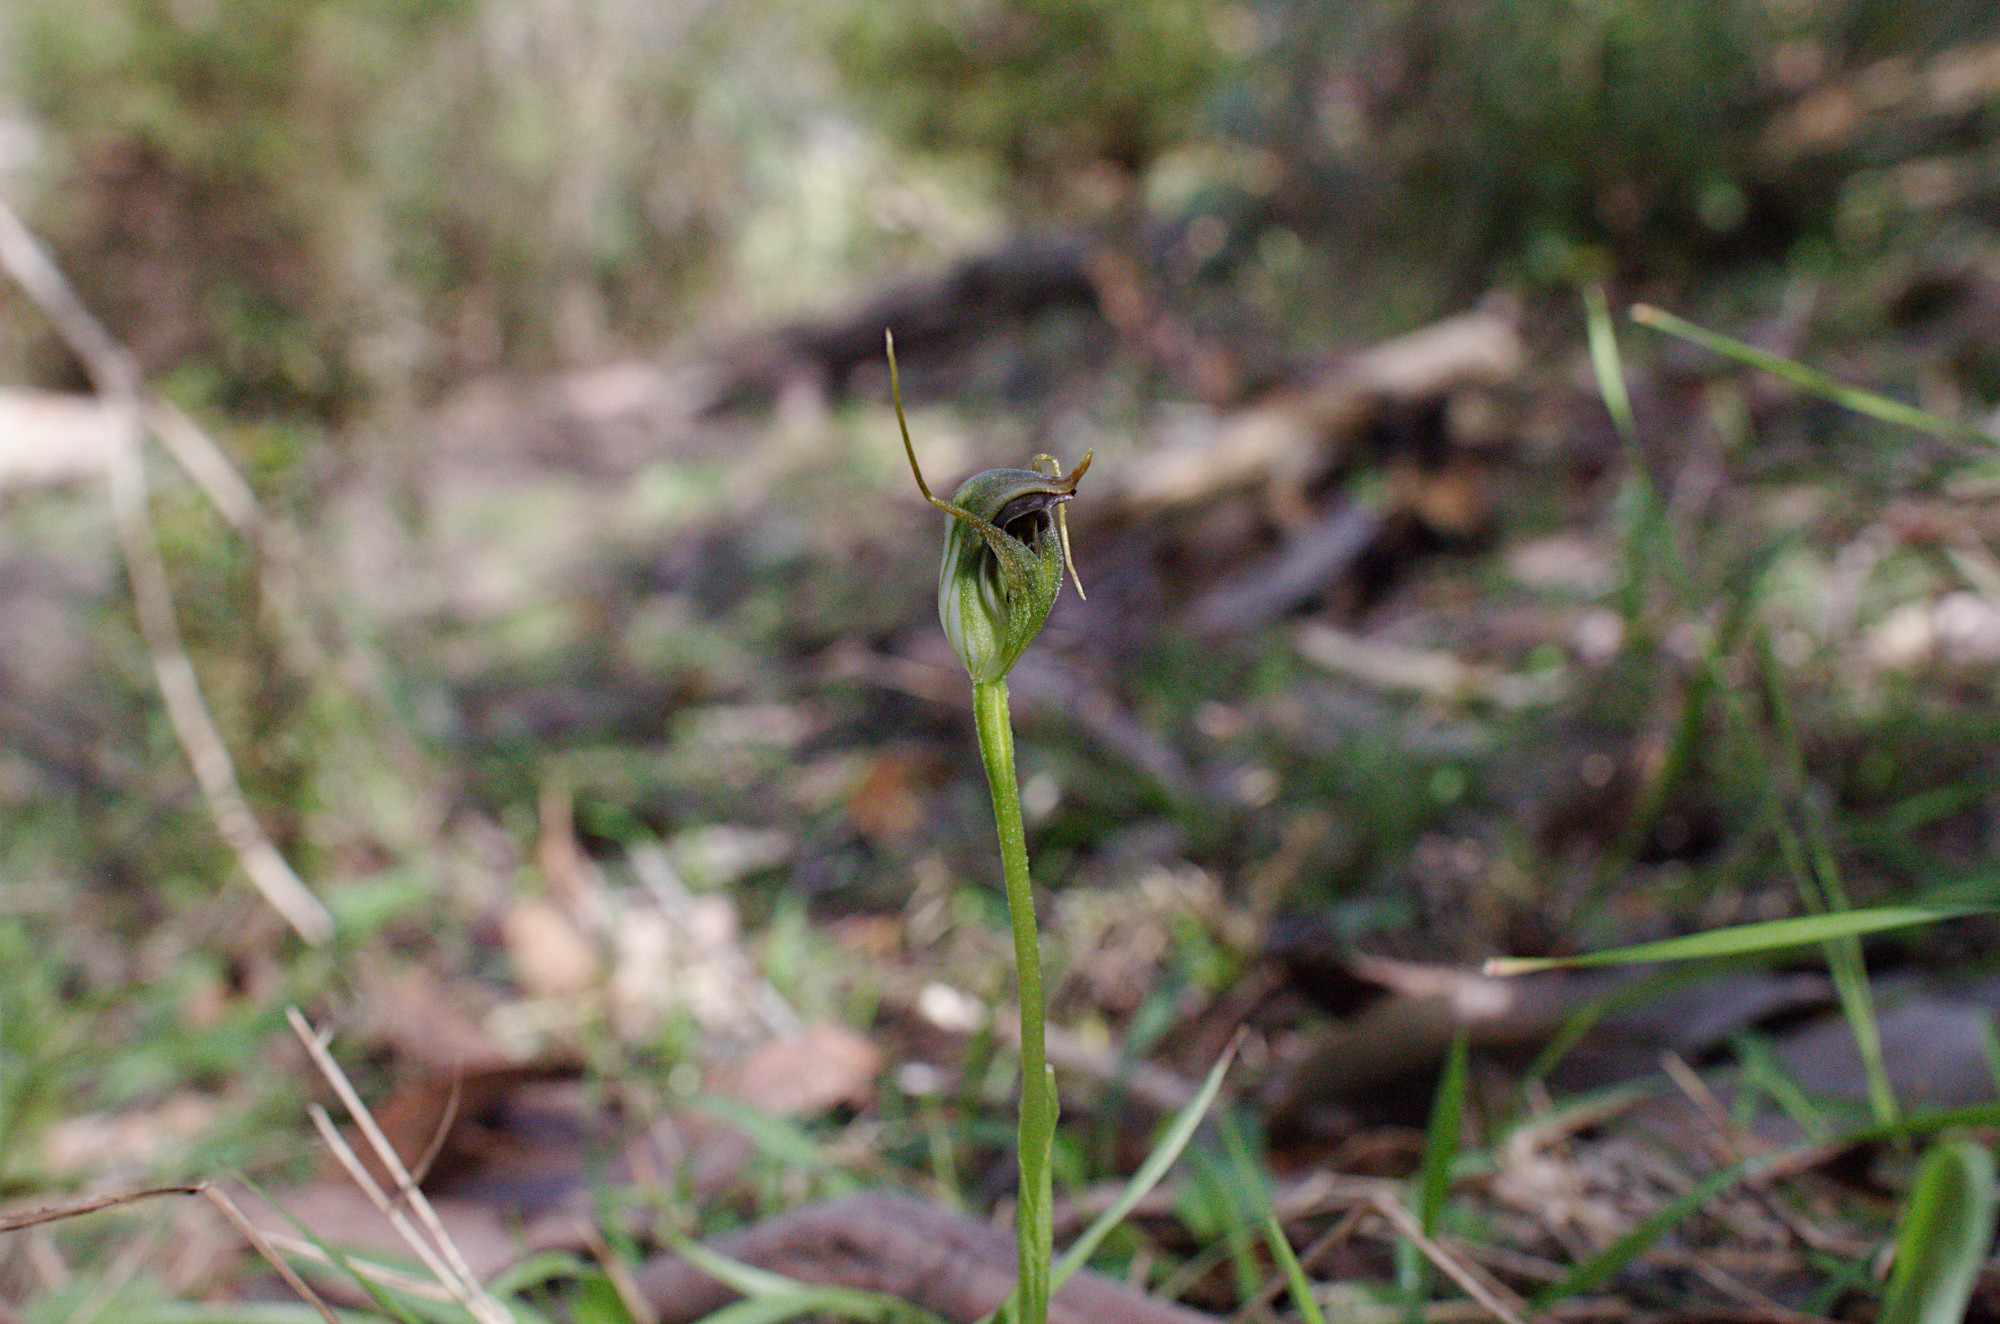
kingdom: Plantae
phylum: Tracheophyta
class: Liliopsida
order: Asparagales
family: Orchidaceae
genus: Pterostylis
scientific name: Pterostylis pedunculata
